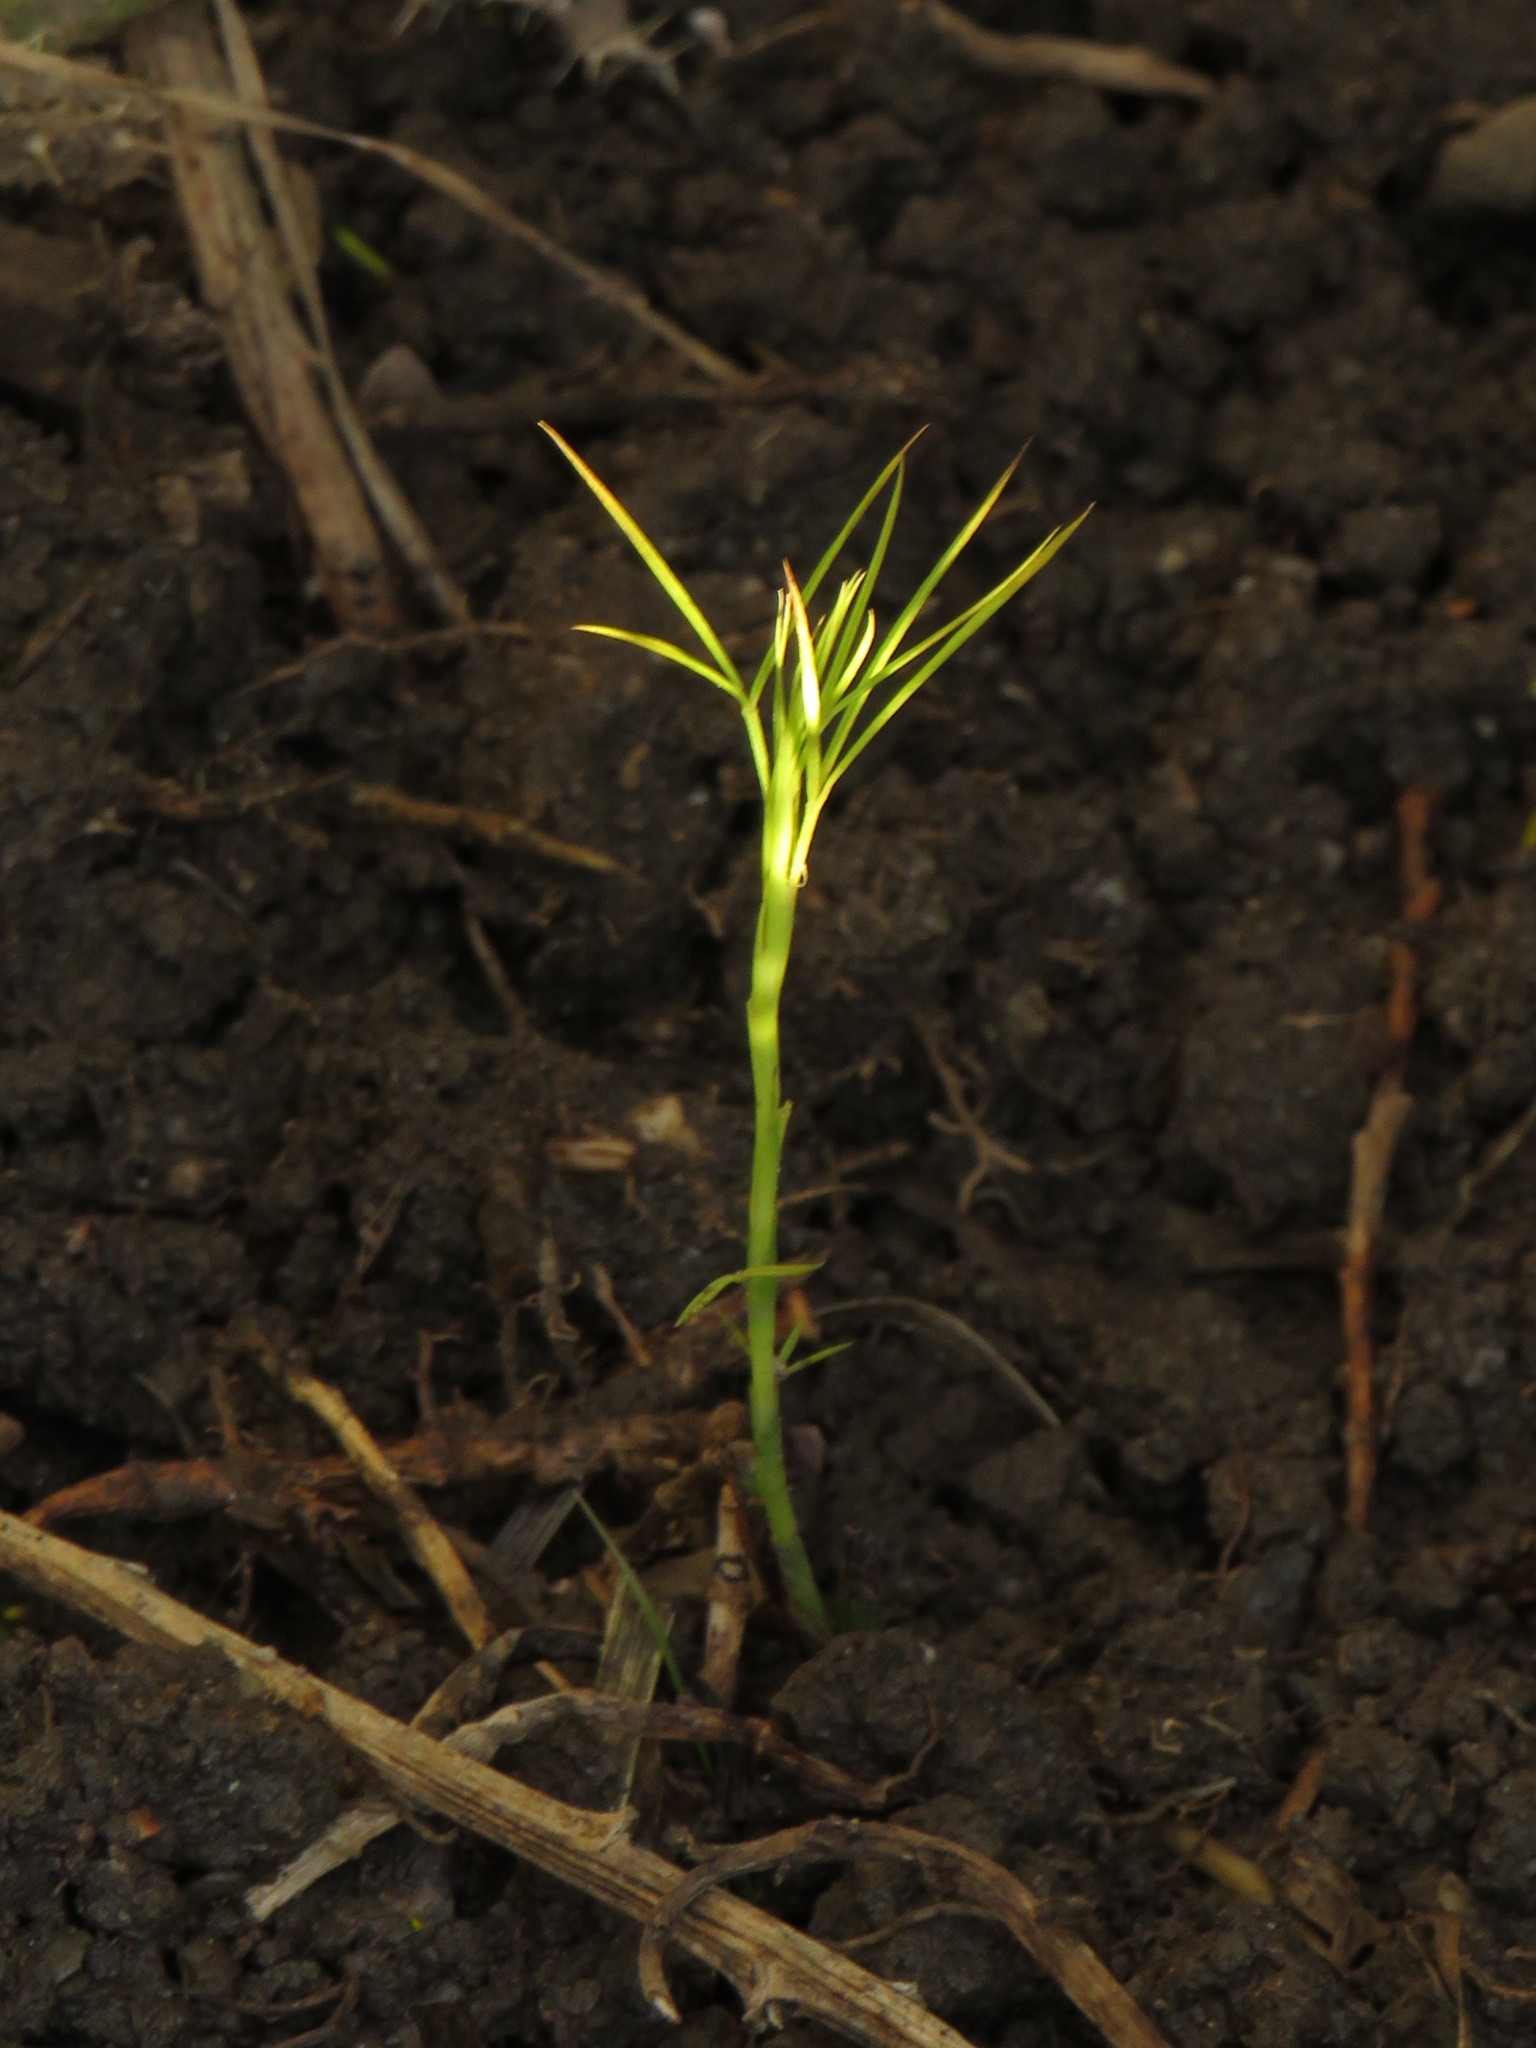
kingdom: Plantae
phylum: Tracheophyta
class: Magnoliopsida
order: Fabales
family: Fabaceae
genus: Psoralea
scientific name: Psoralea fascicularis
